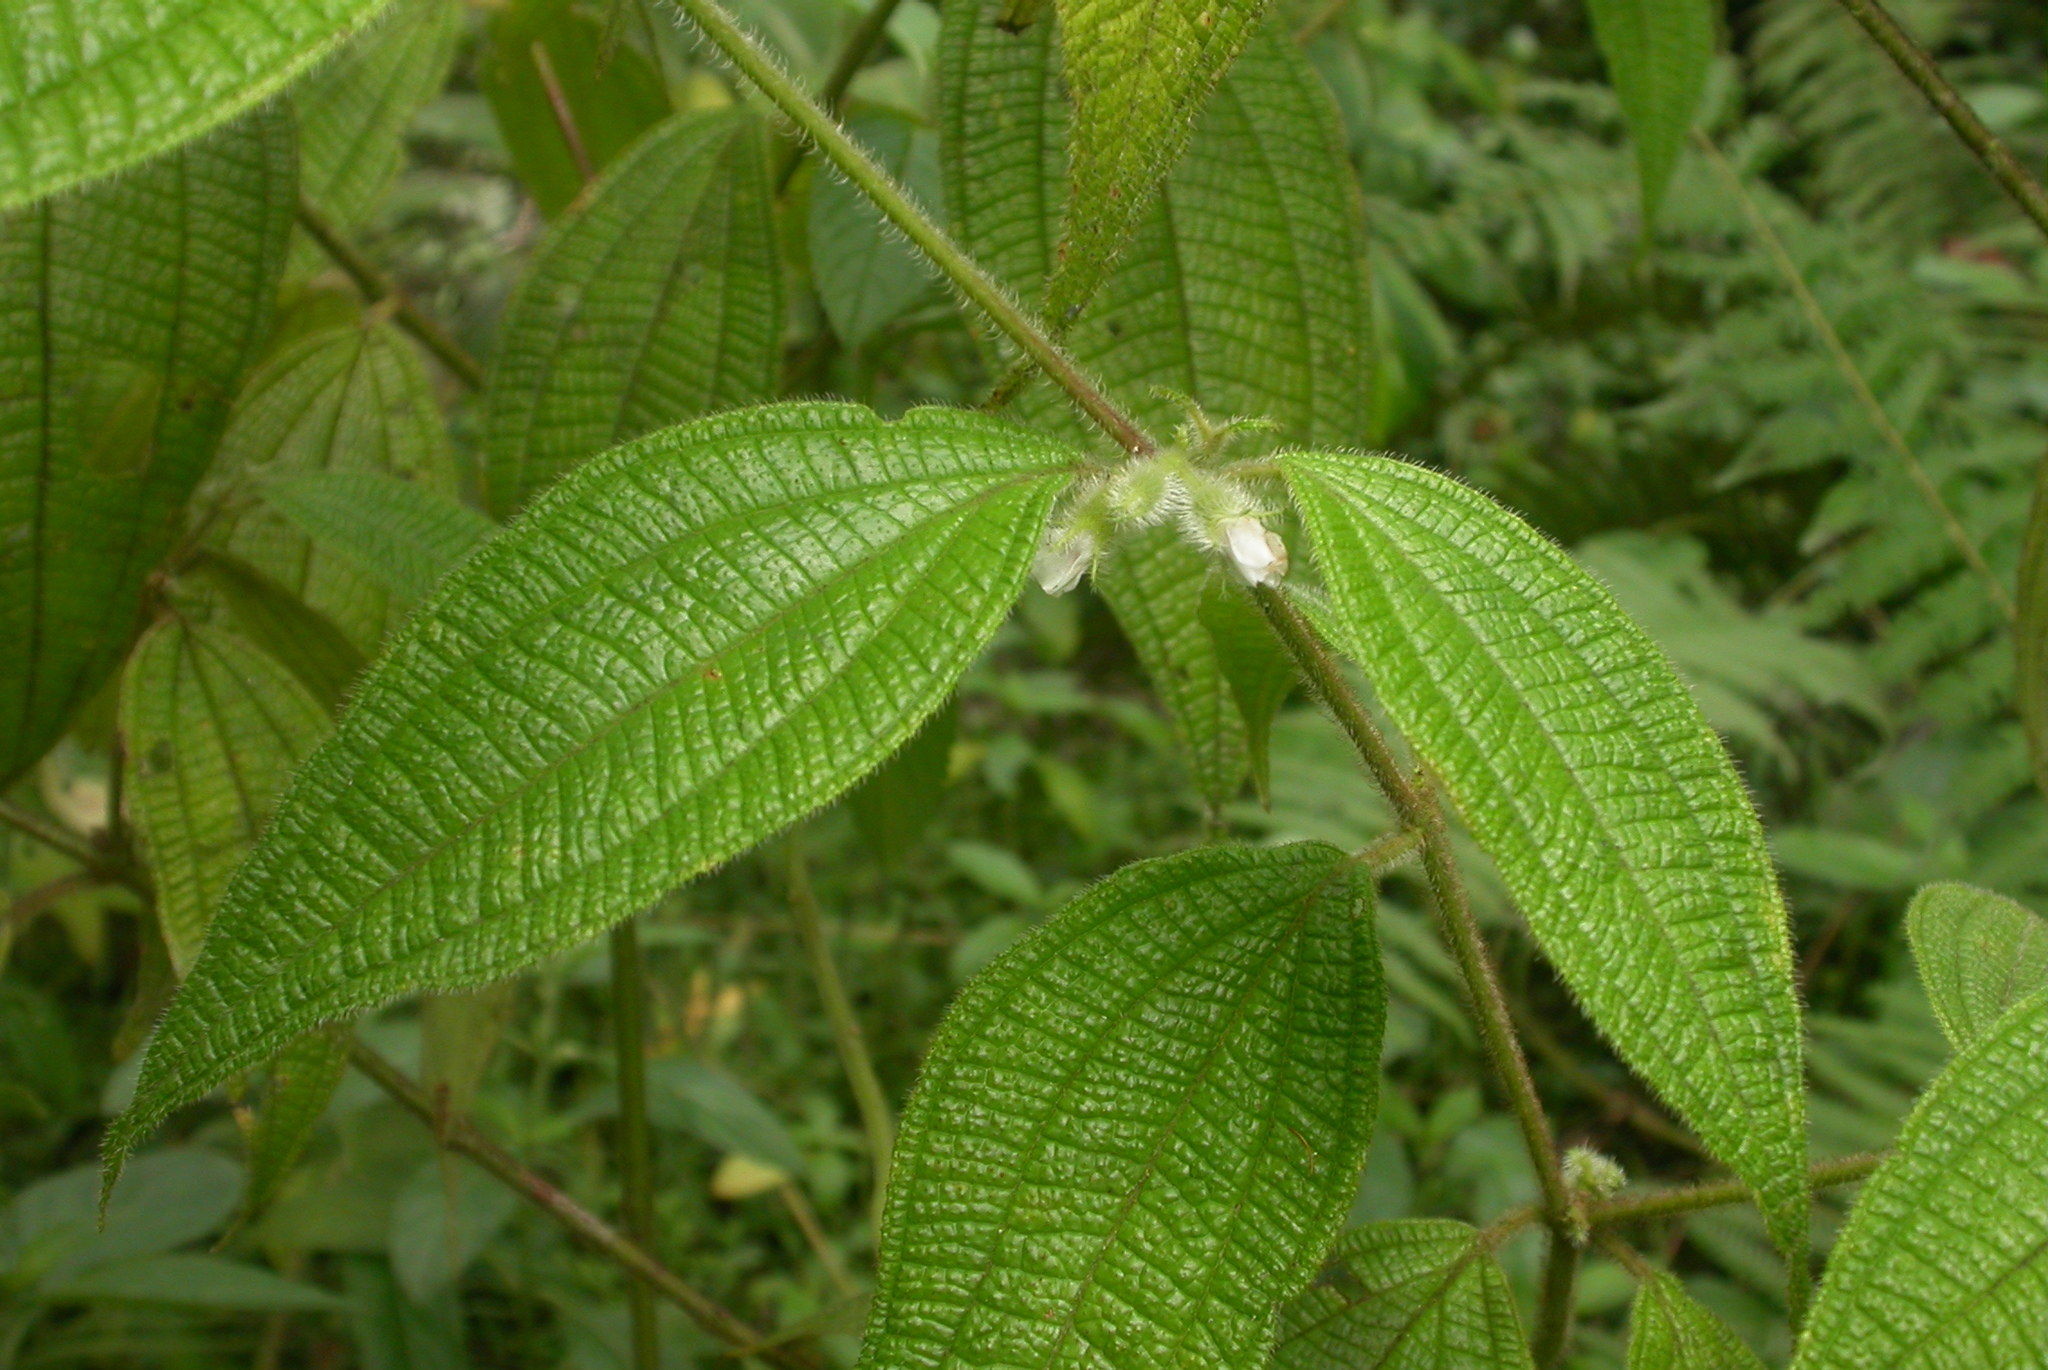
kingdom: Plantae
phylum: Tracheophyta
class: Magnoliopsida
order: Myrtales
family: Melastomataceae
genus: Miconia
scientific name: Miconia dentata
